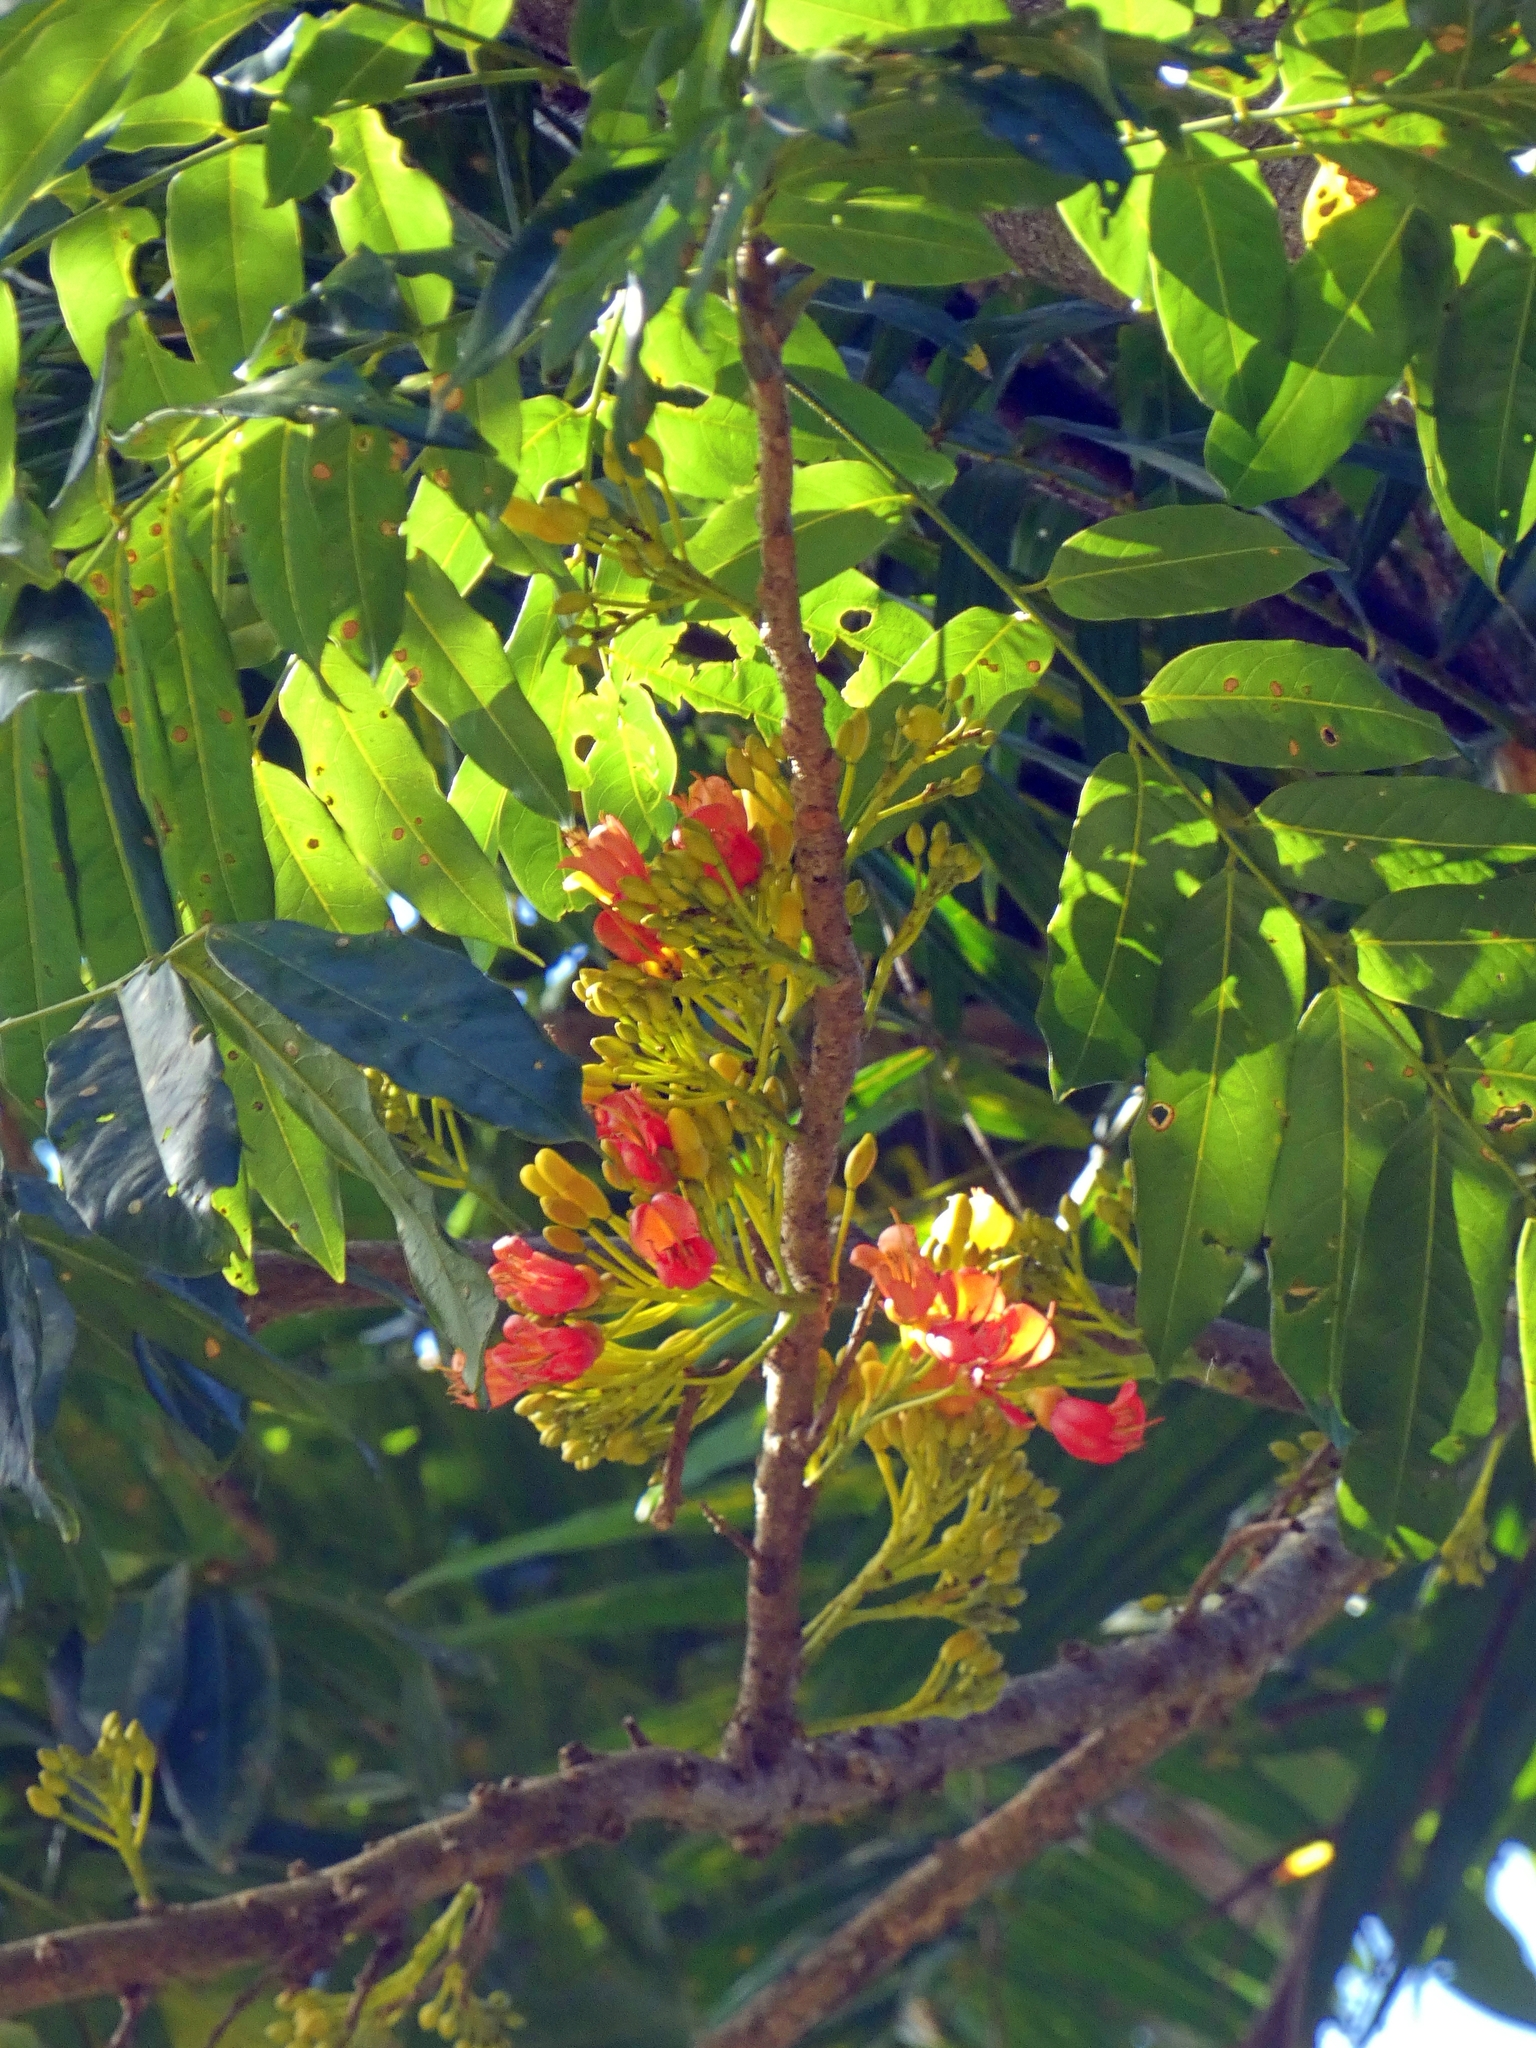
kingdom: Plantae
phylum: Tracheophyta
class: Magnoliopsida
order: Fabales
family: Fabaceae
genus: Castanospermum
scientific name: Castanospermum australe
